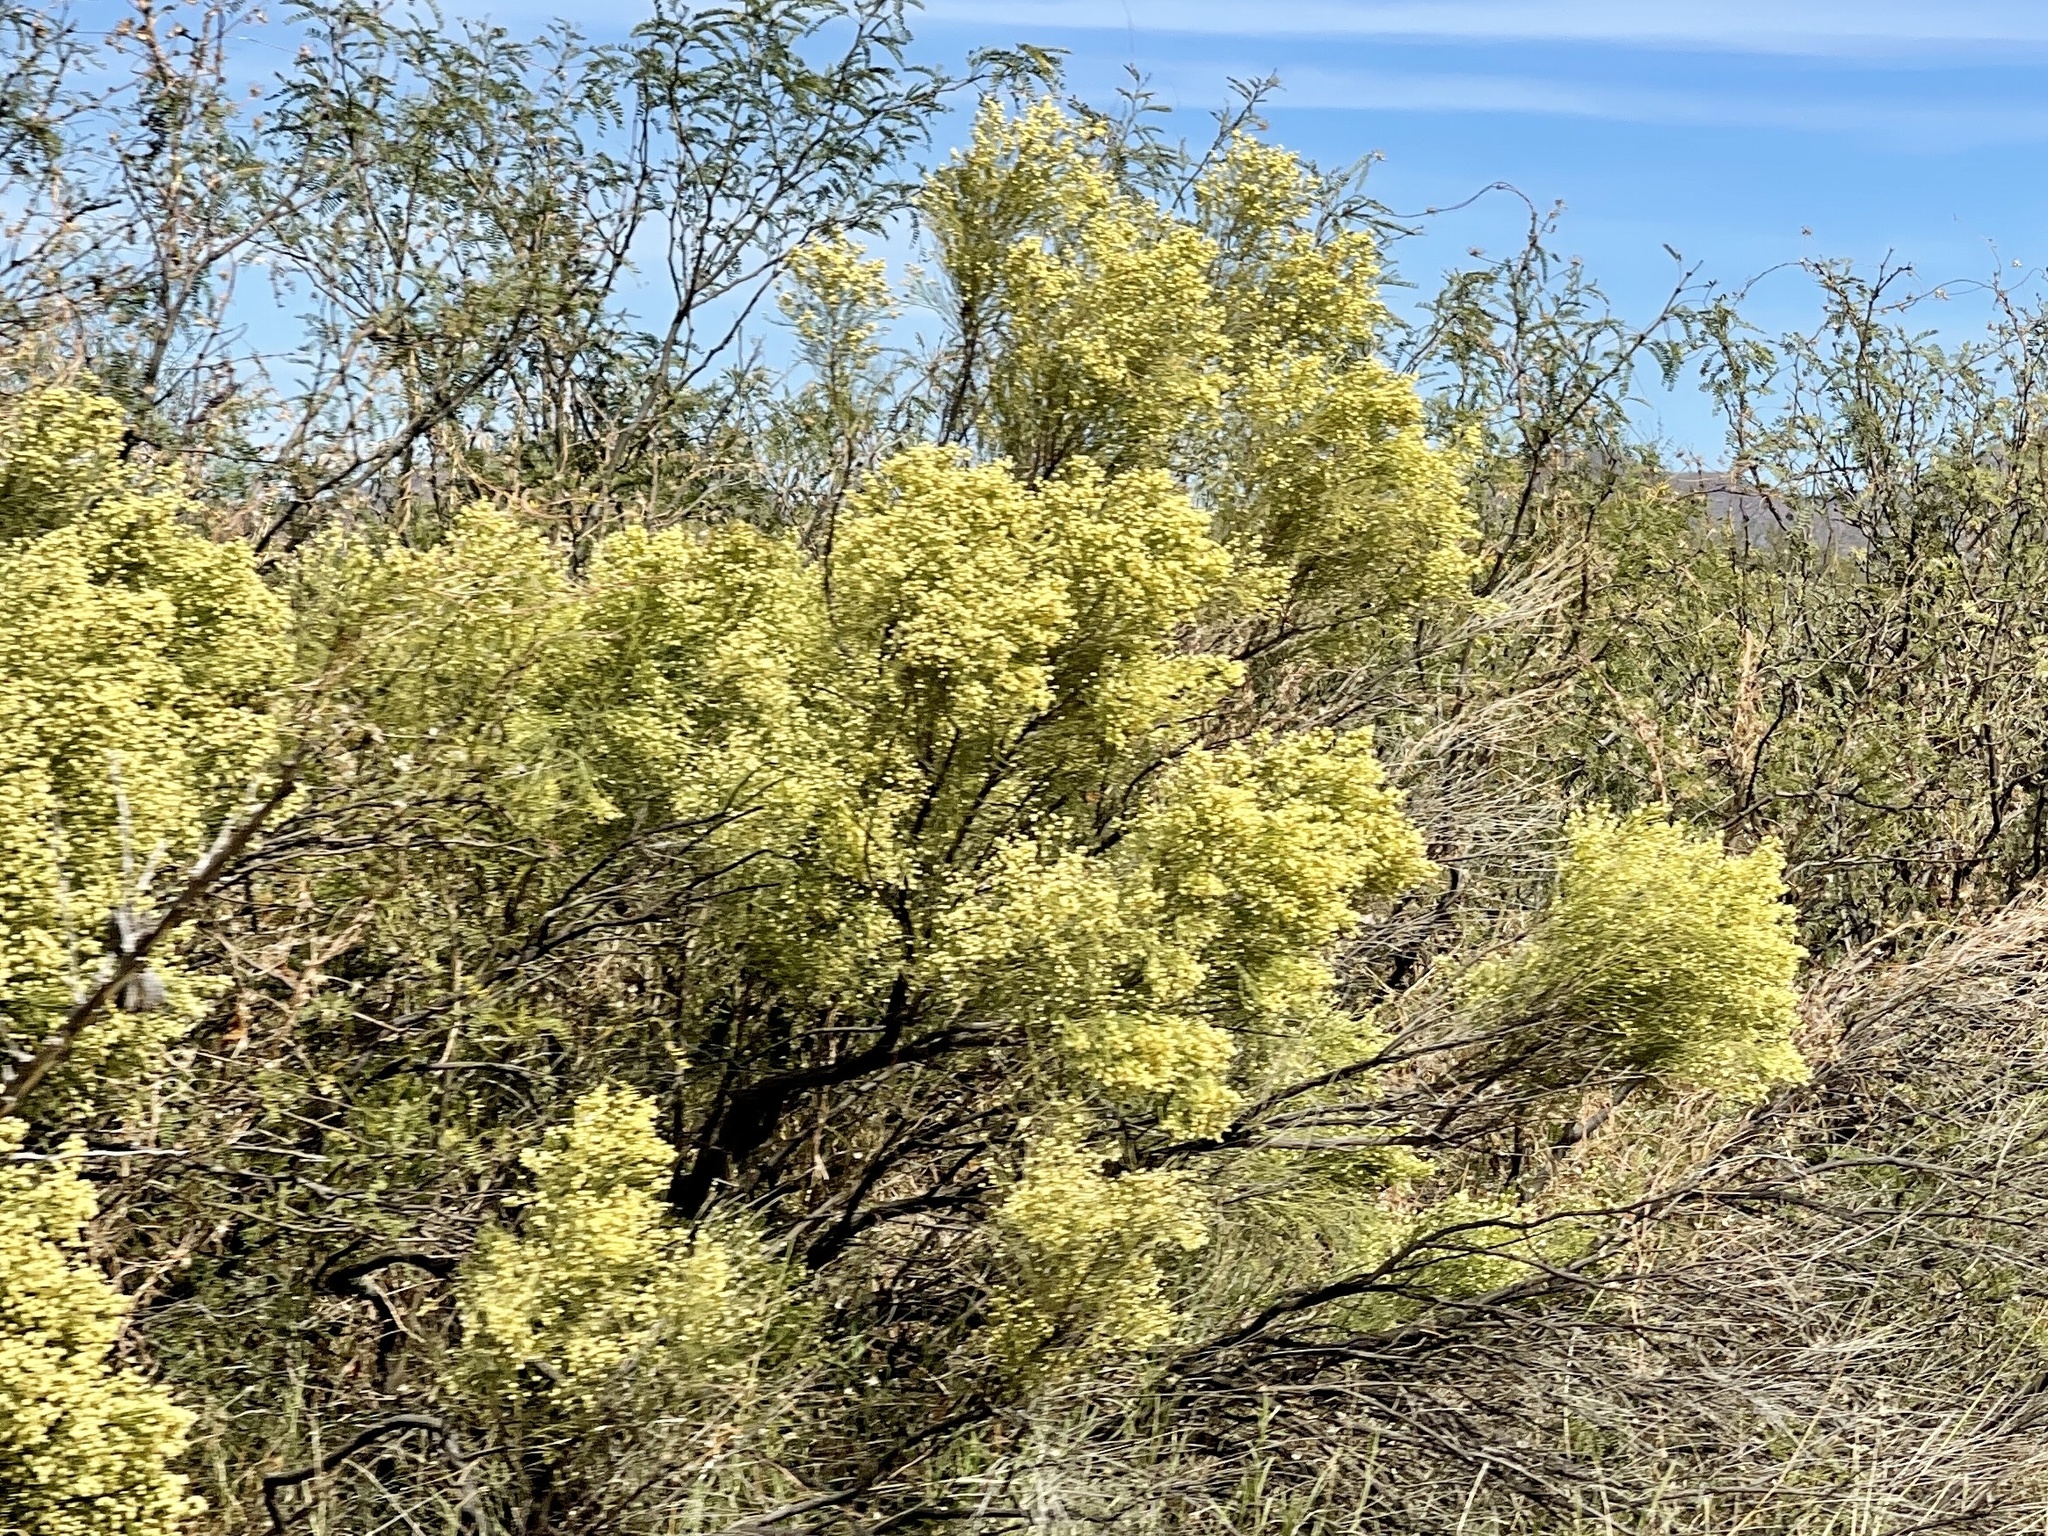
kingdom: Plantae
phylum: Tracheophyta
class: Magnoliopsida
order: Asterales
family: Asteraceae
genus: Baccharis
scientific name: Baccharis sarothroides
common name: Desert-broom
